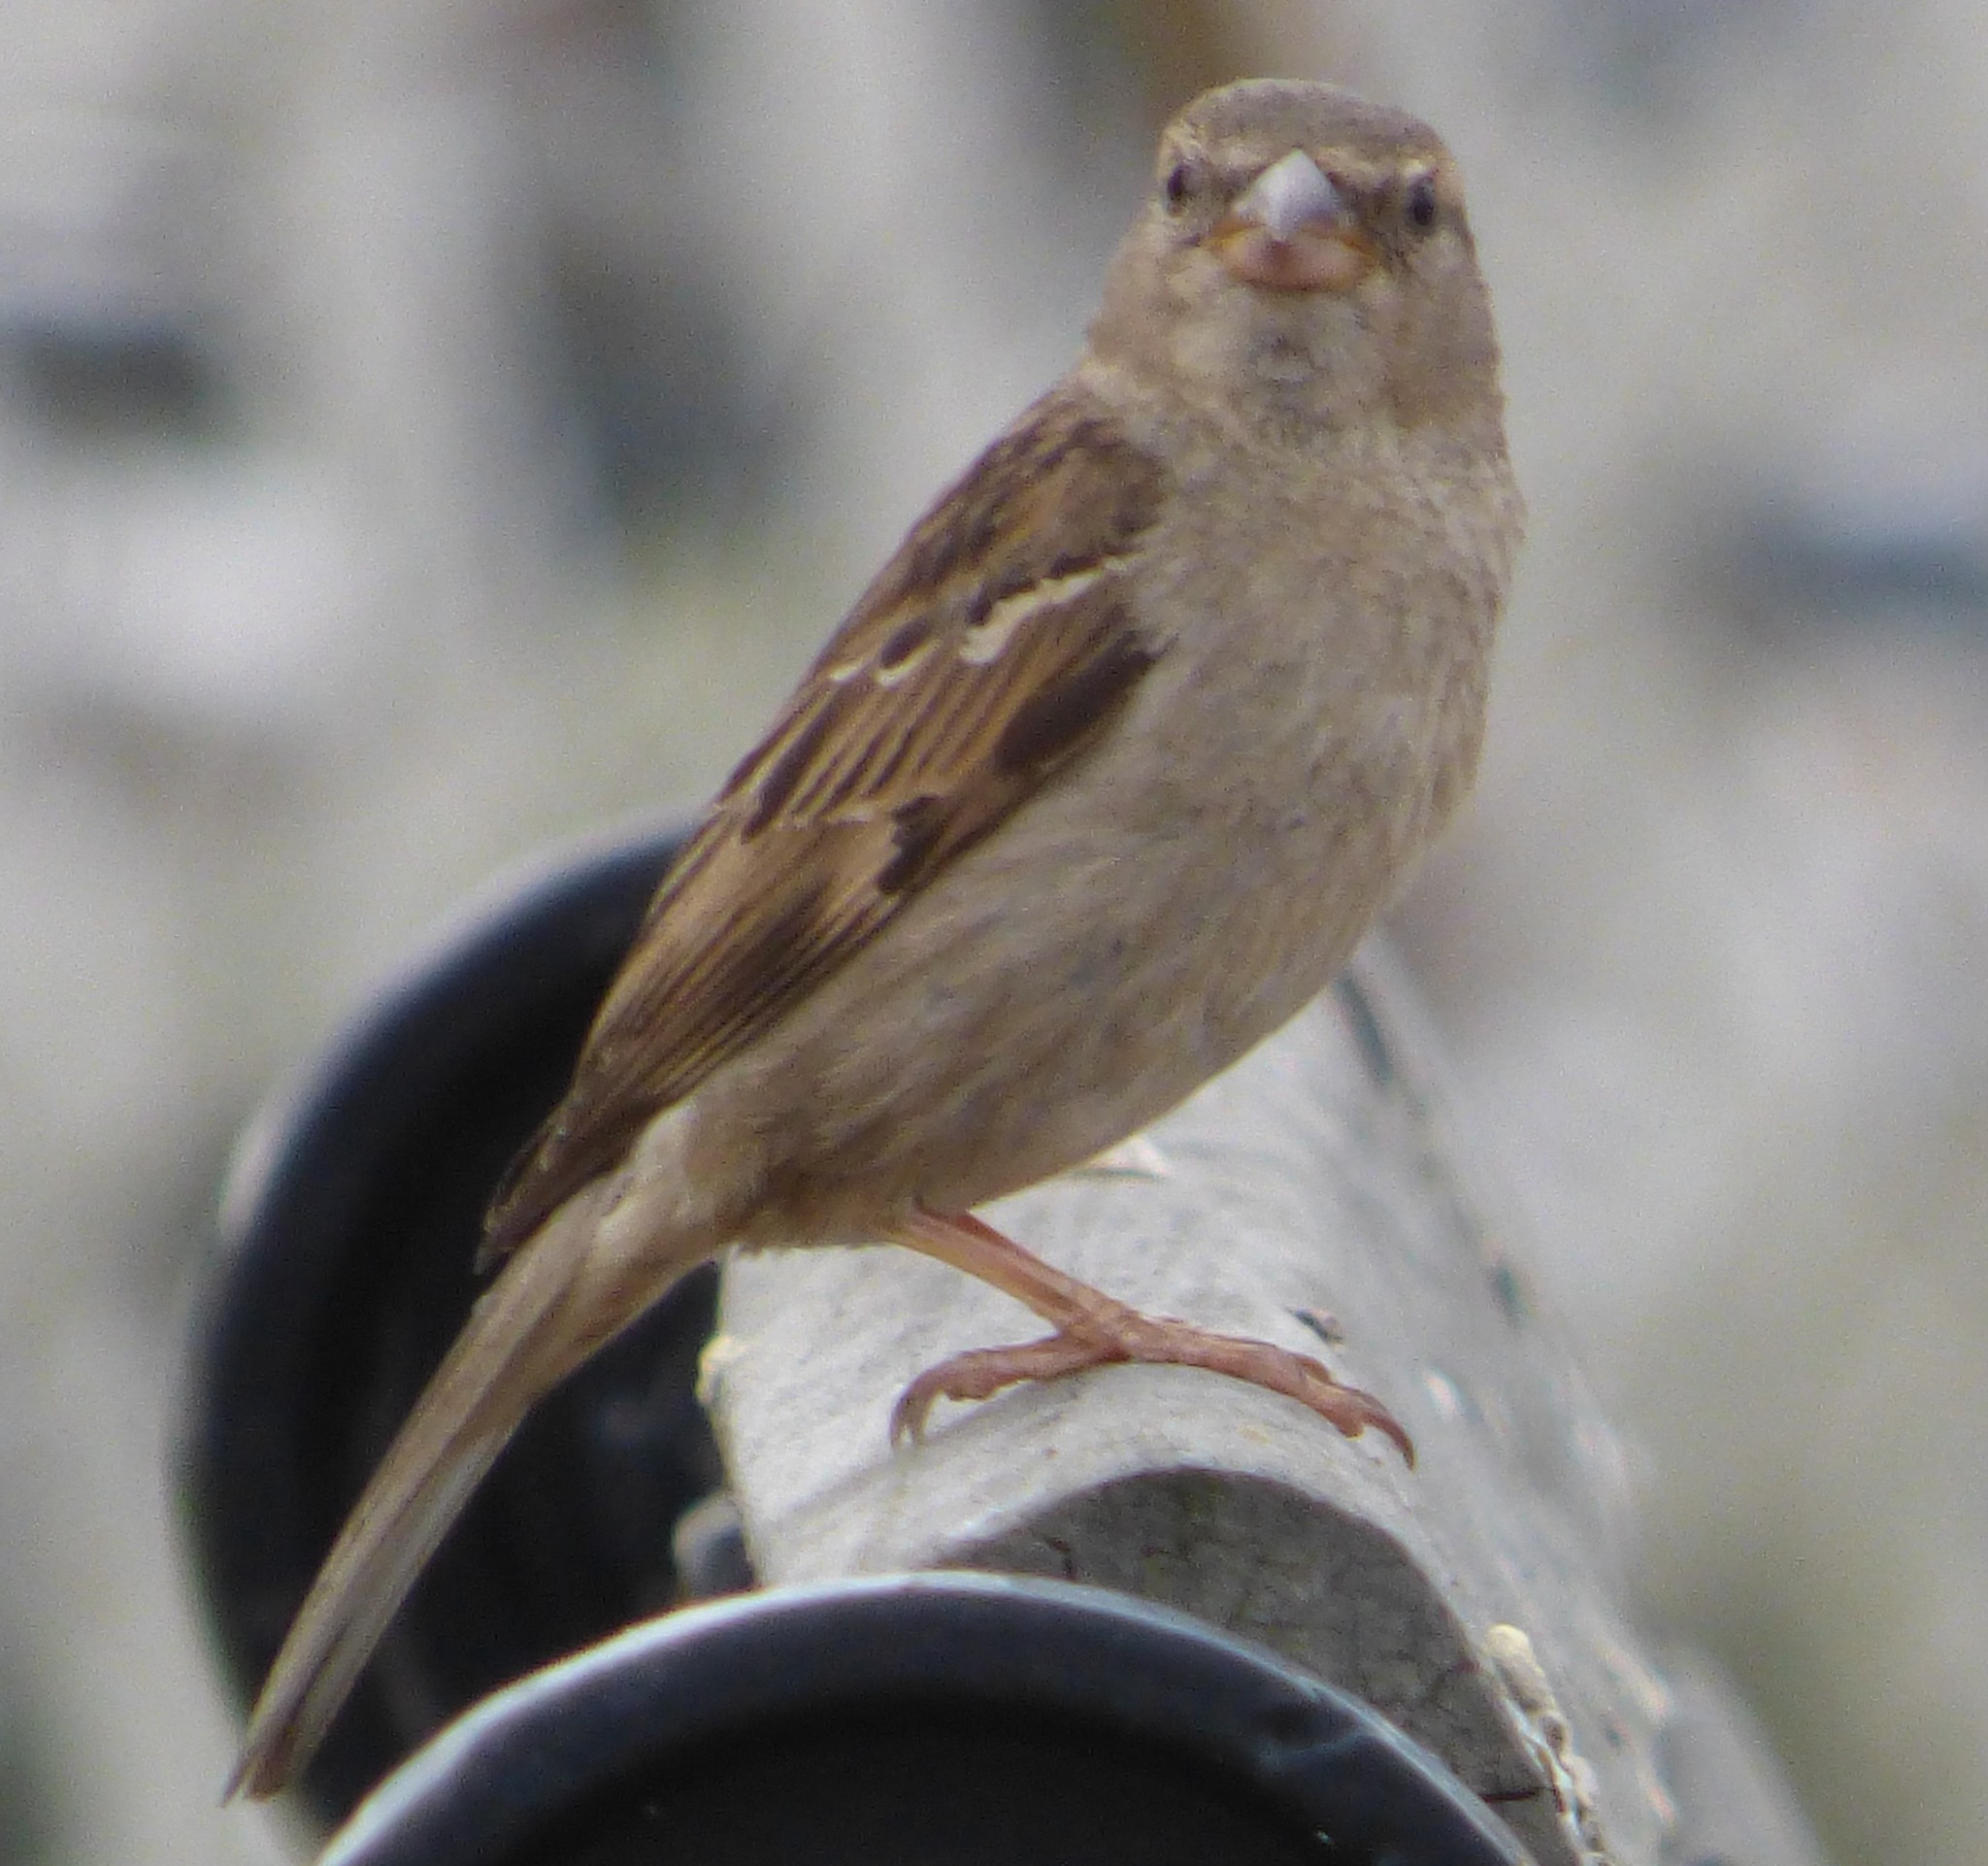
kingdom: Animalia
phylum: Chordata
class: Aves
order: Passeriformes
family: Passeridae
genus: Passer
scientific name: Passer domesticus
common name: House sparrow
